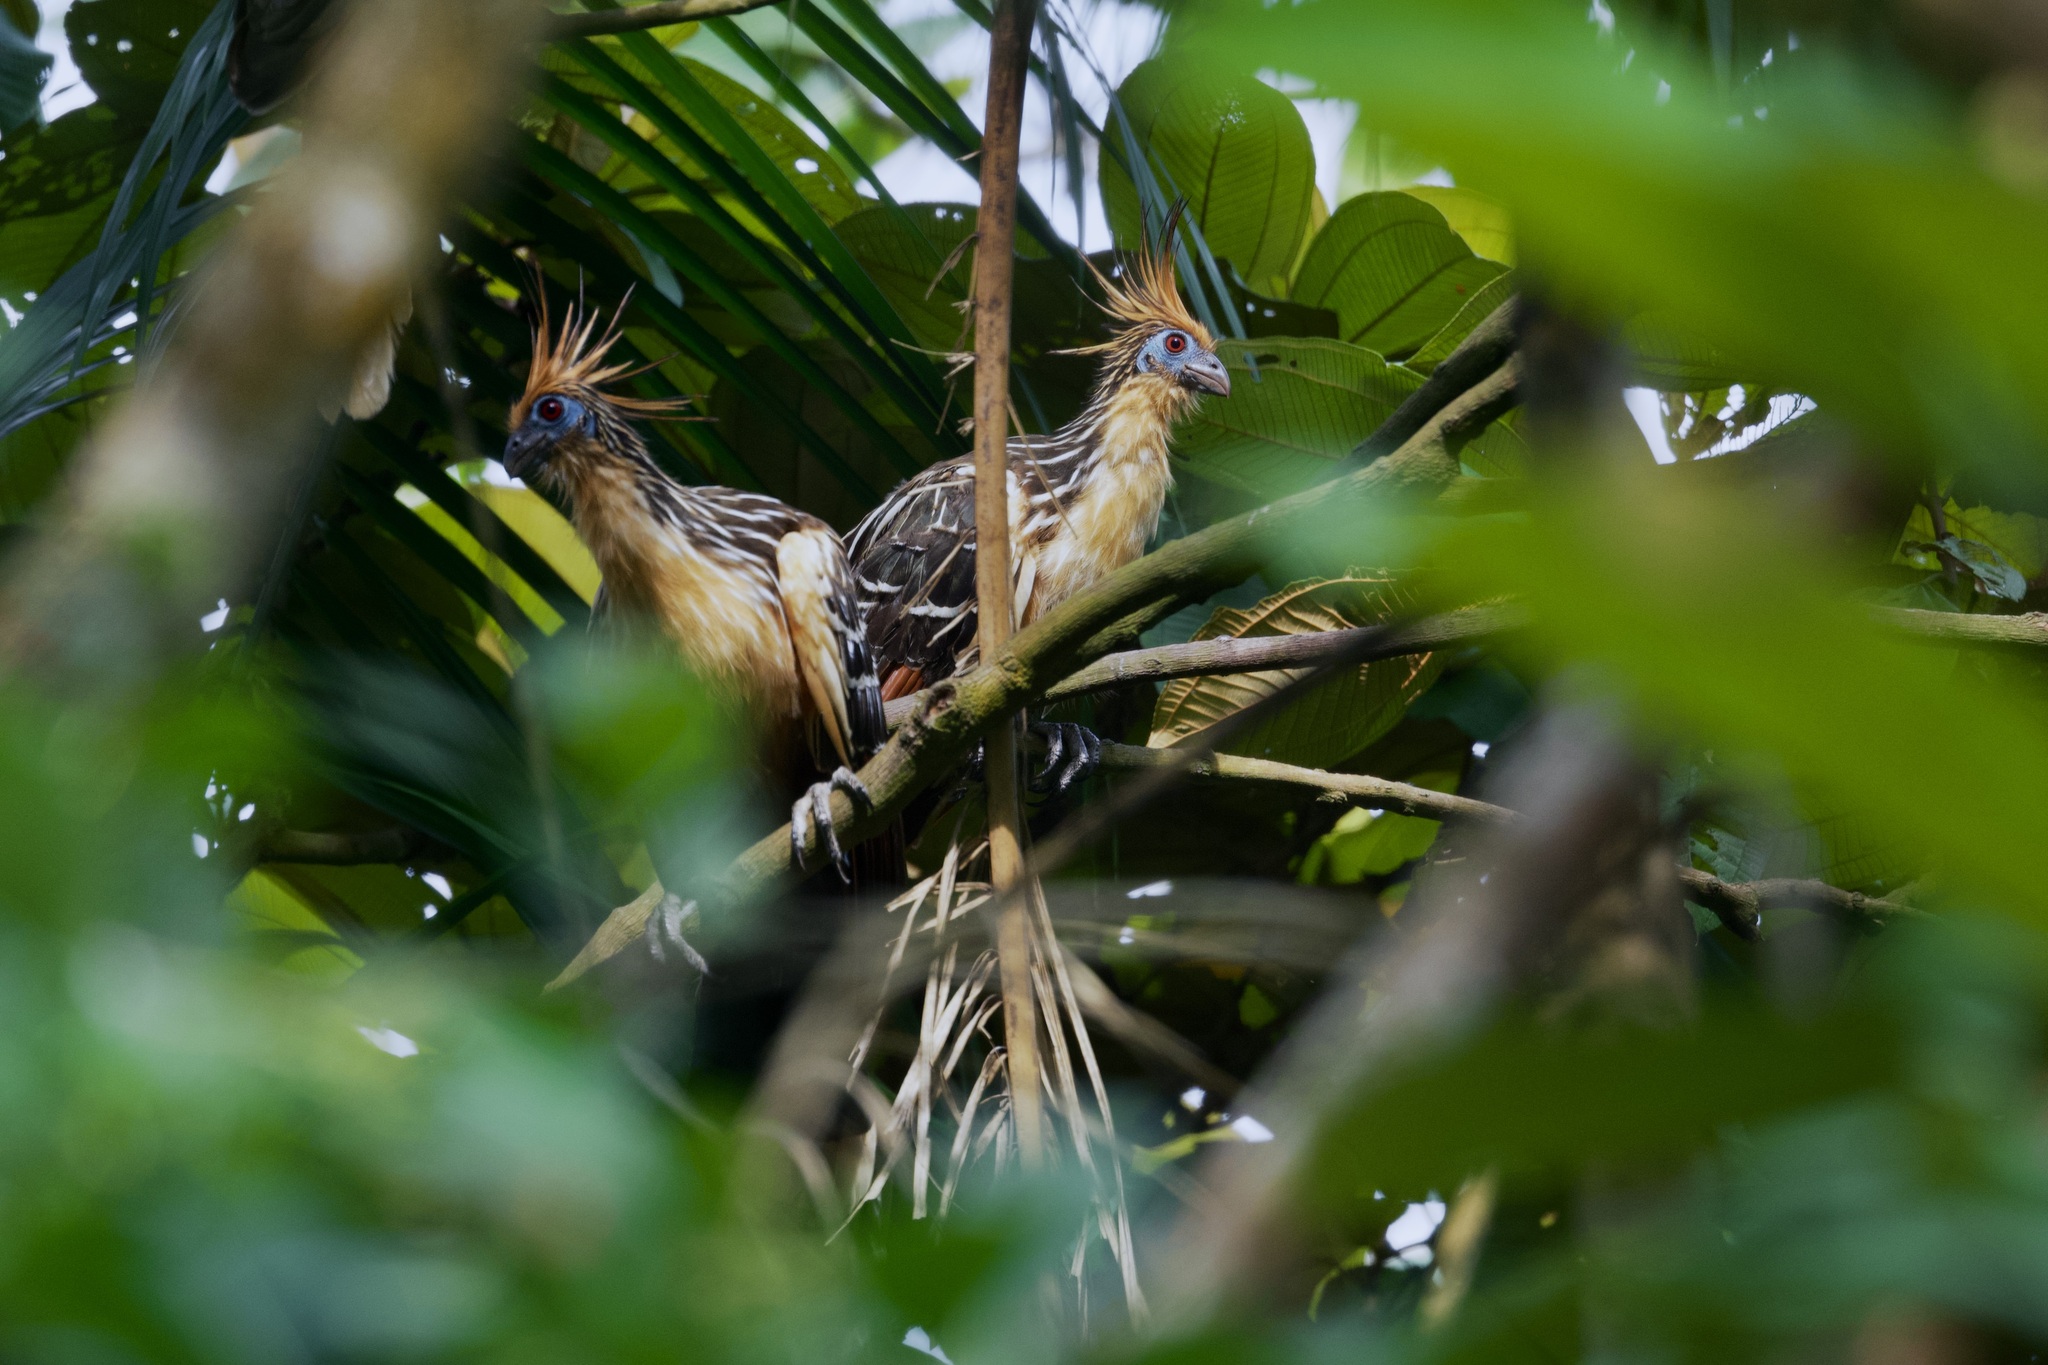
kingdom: Animalia
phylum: Chordata
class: Aves
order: Opisthocomiformes
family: Opisthocomidae
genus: Opisthocomus
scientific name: Opisthocomus hoazin
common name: Hoatzin
